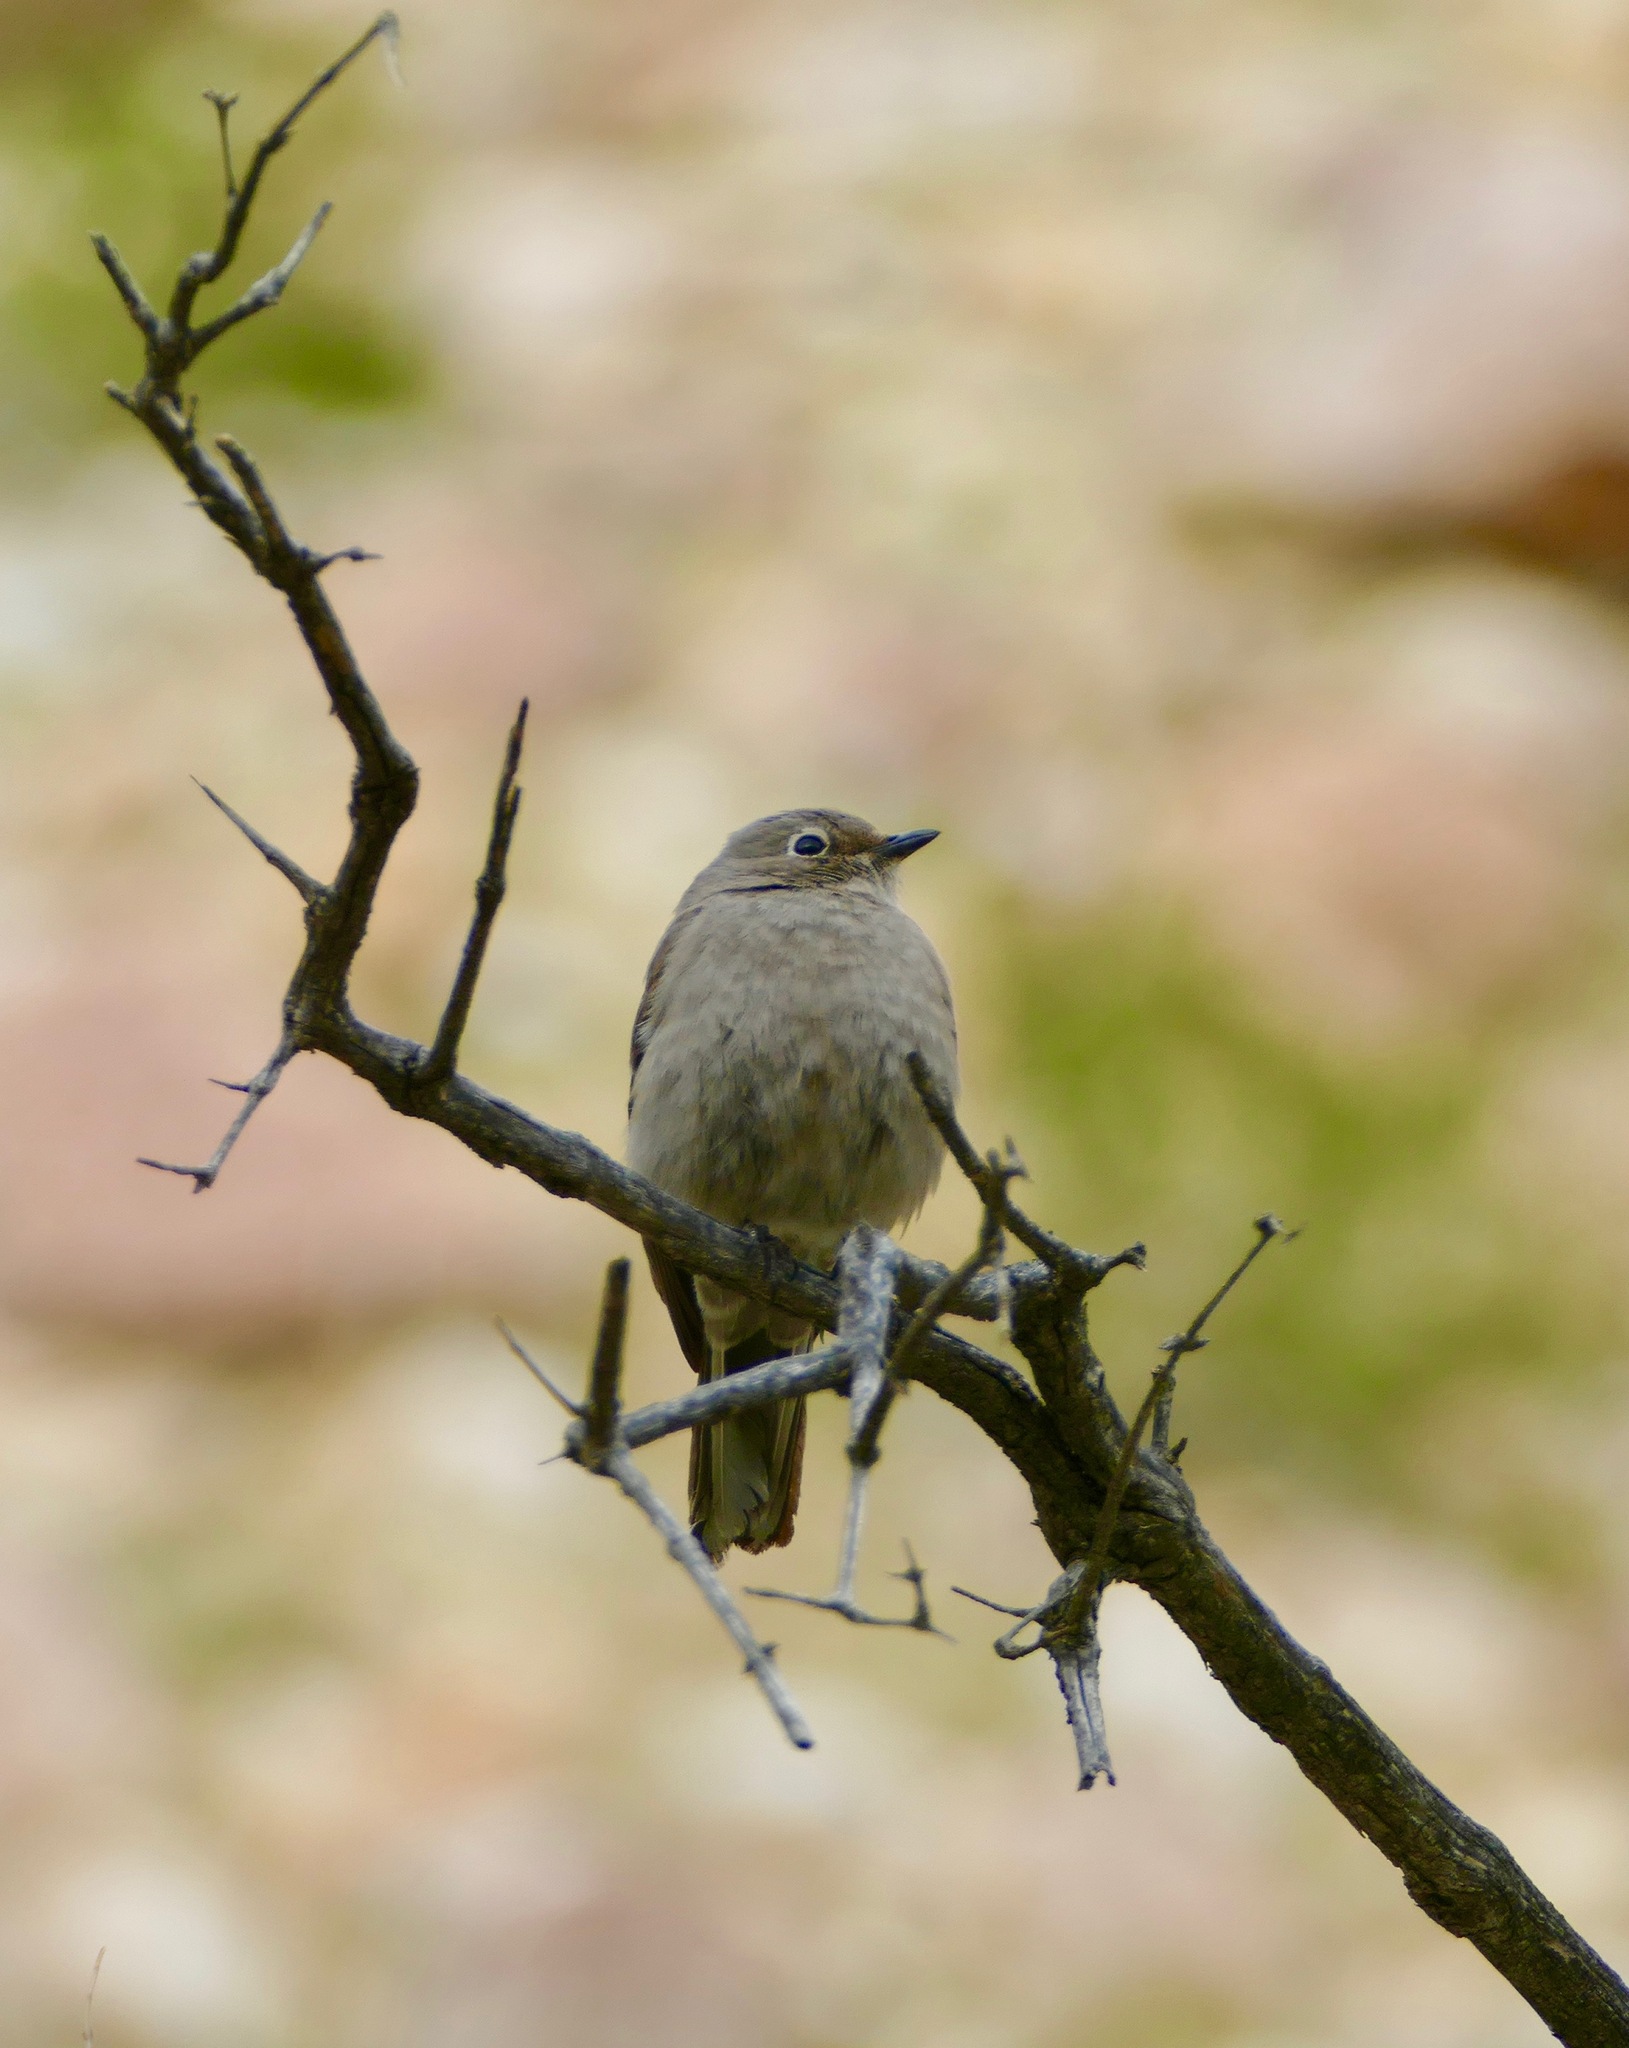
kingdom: Animalia
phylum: Chordata
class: Aves
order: Passeriformes
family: Turdidae
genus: Myadestes
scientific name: Myadestes townsendi
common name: Townsend's solitaire
